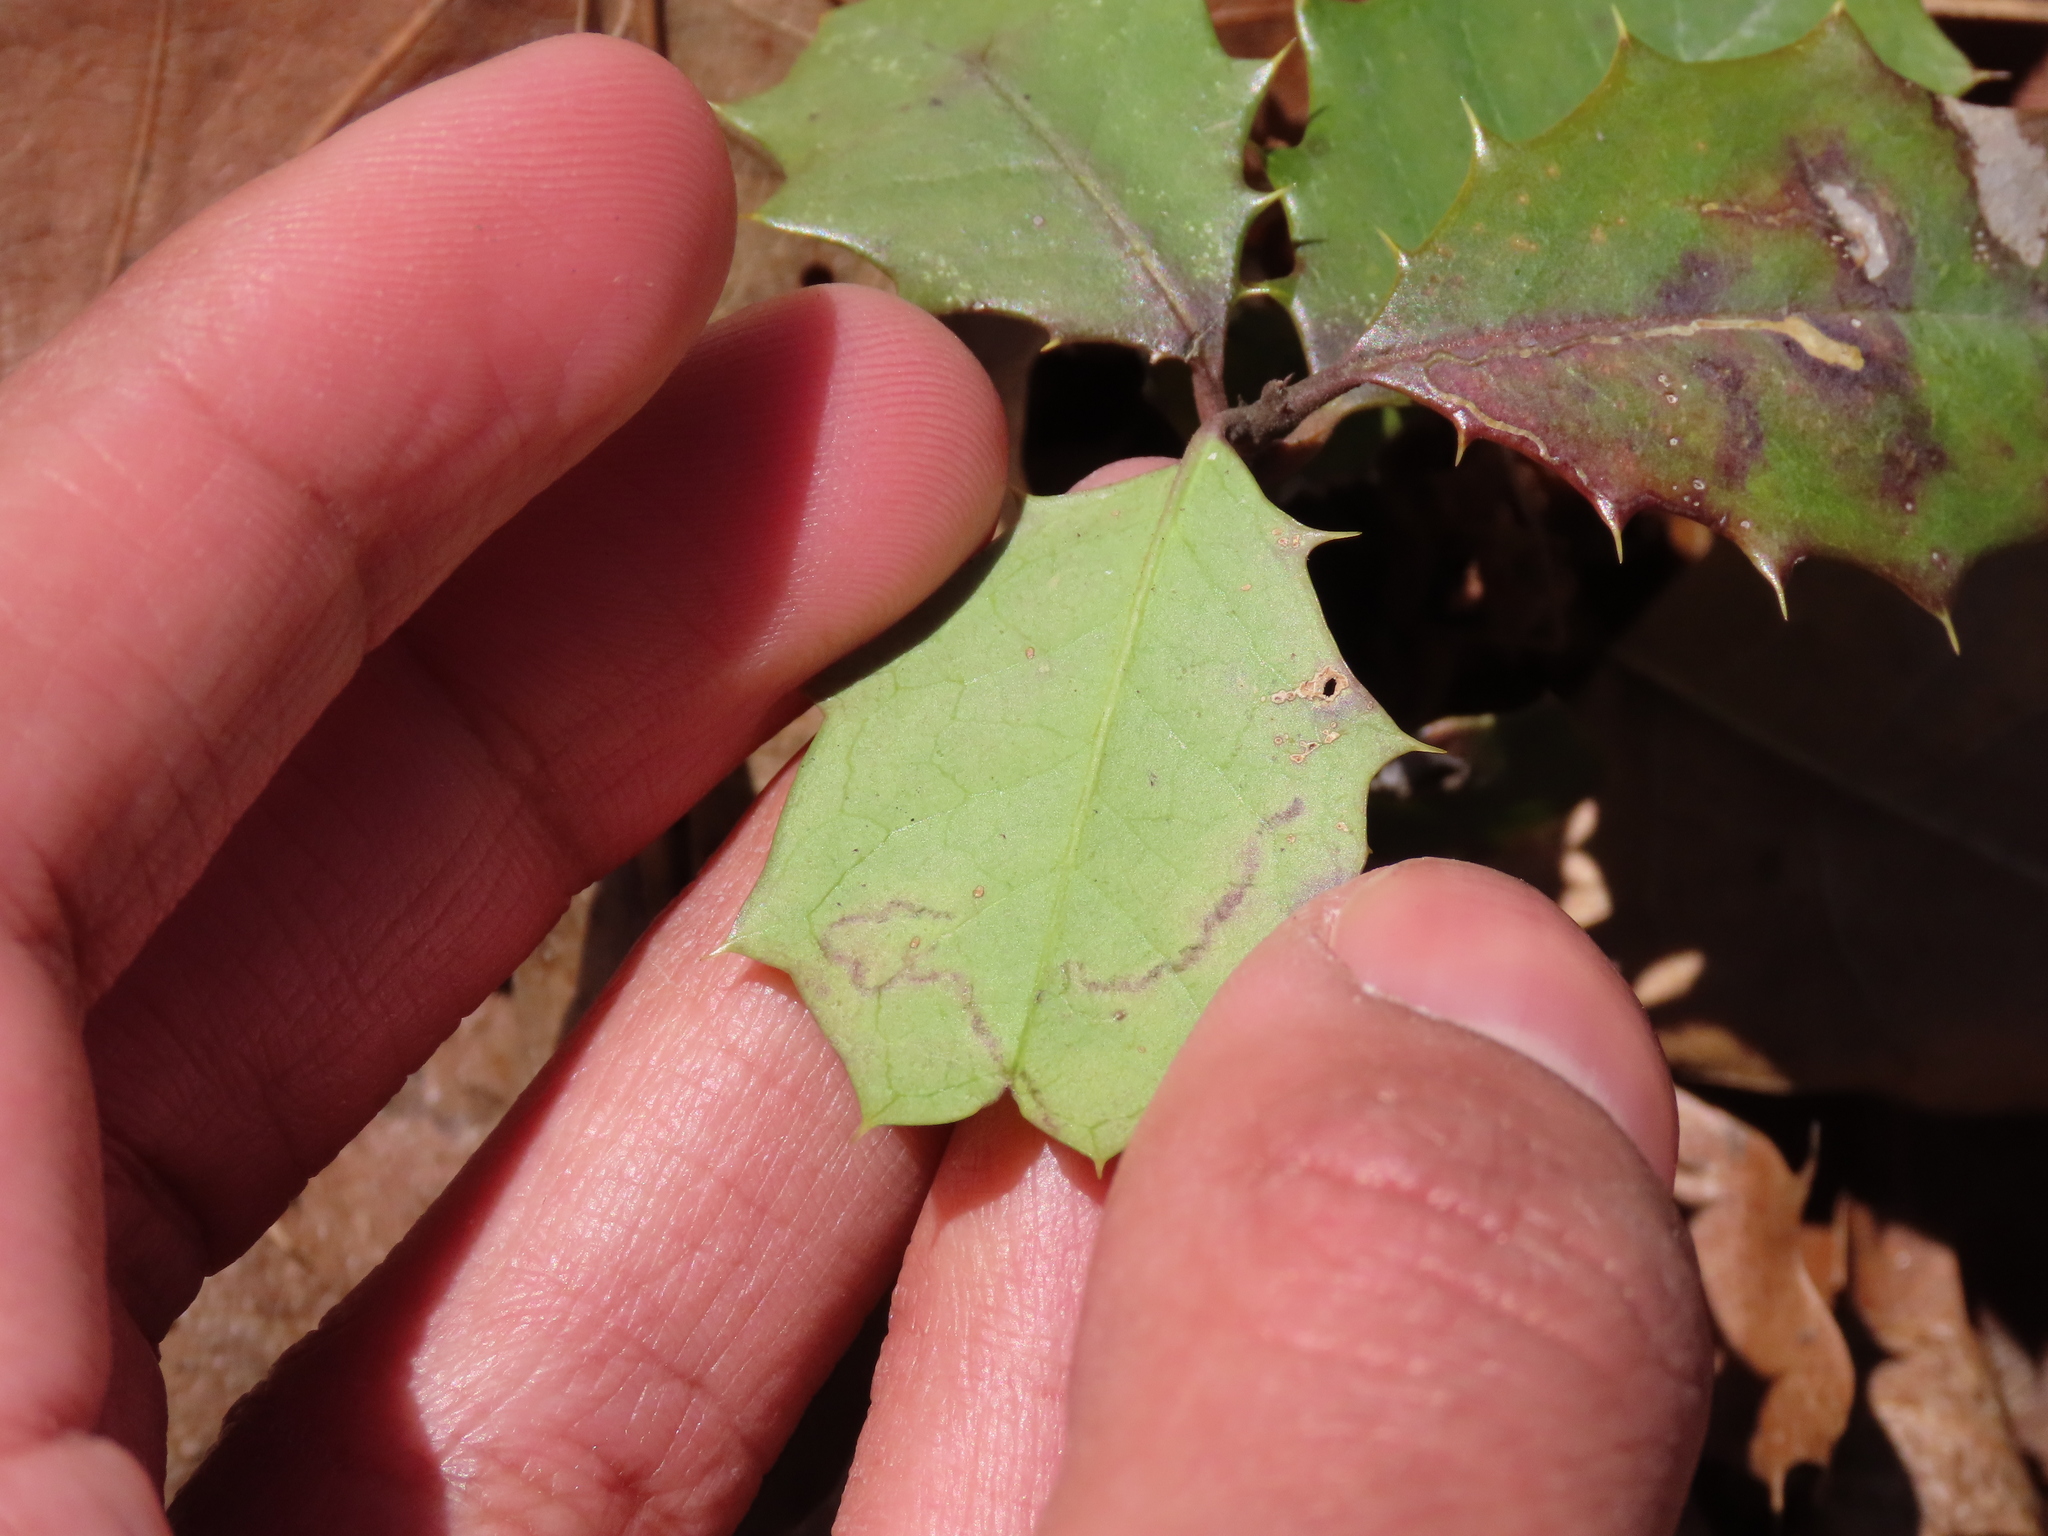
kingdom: Plantae
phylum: Tracheophyta
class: Magnoliopsida
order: Aquifoliales
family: Aquifoliaceae
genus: Ilex
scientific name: Ilex opaca
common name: American holly
